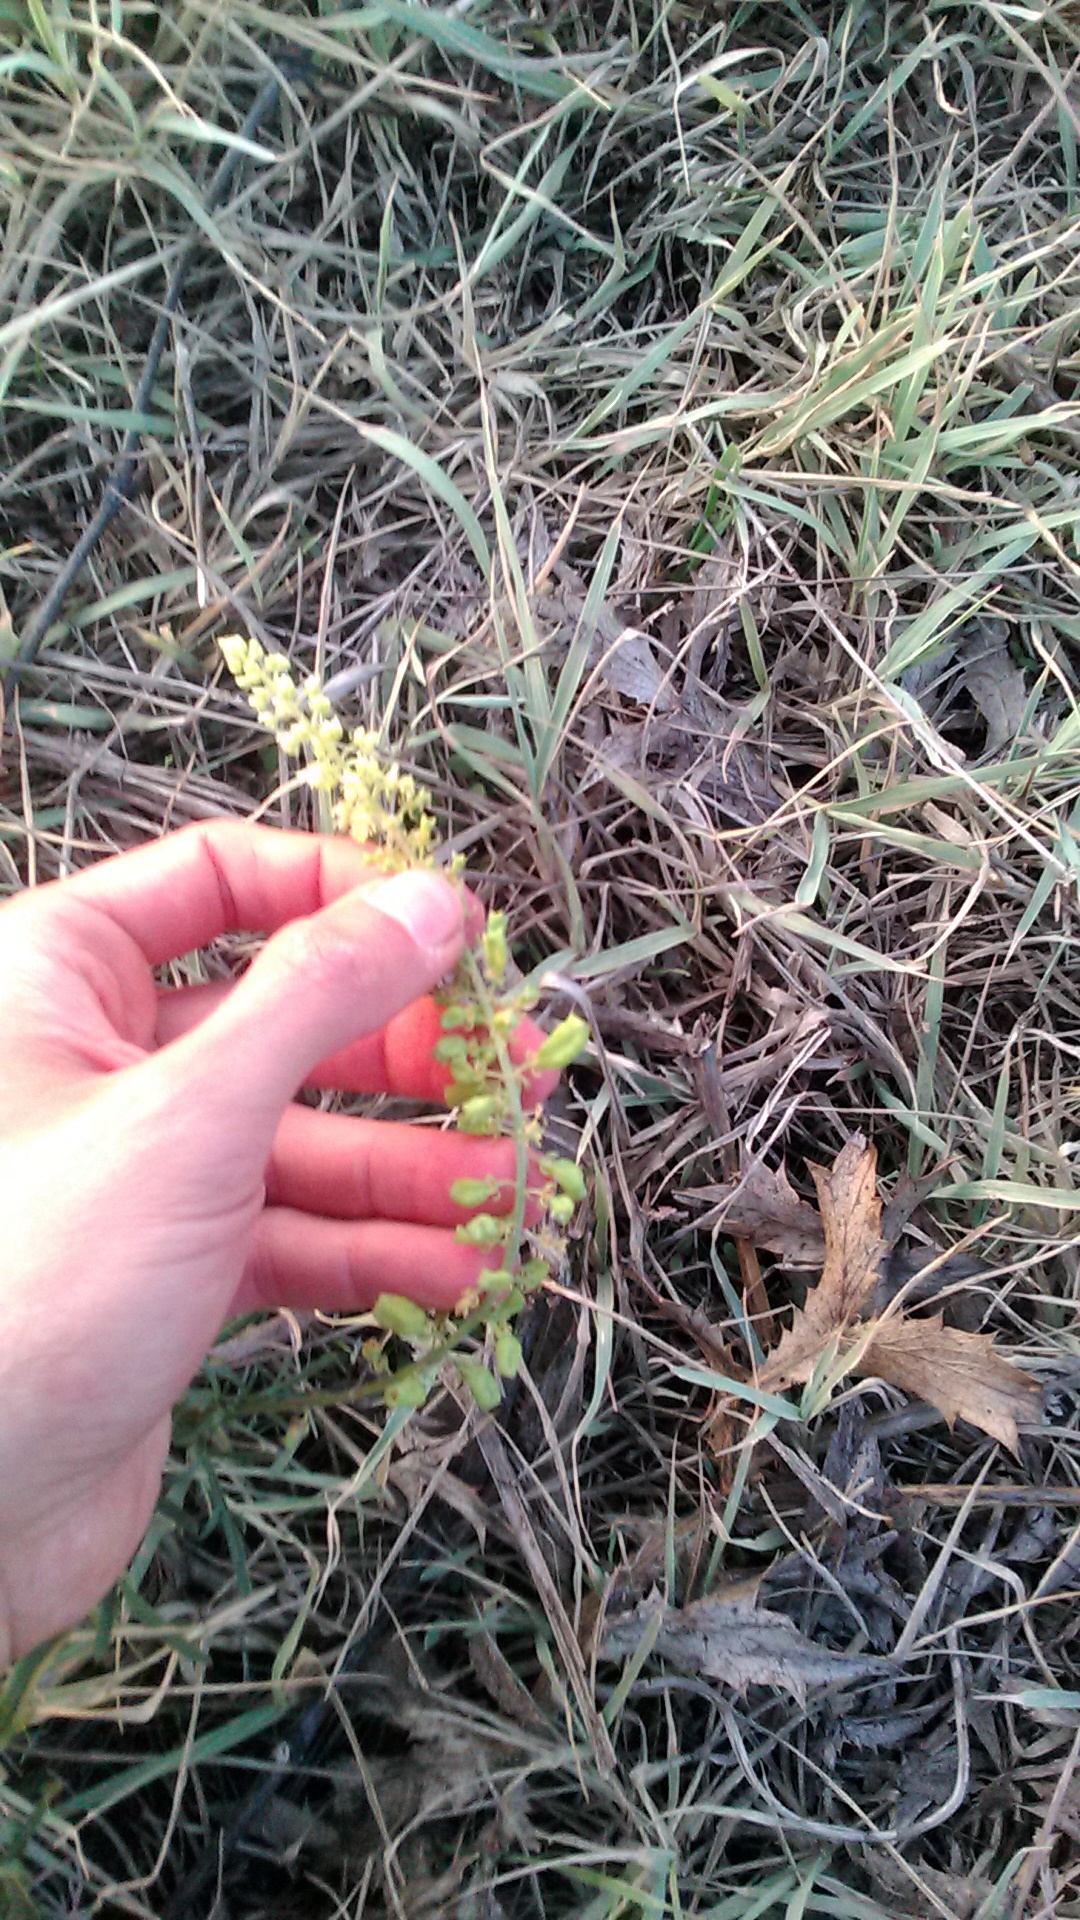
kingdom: Plantae
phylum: Tracheophyta
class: Magnoliopsida
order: Brassicales
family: Resedaceae
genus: Reseda
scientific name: Reseda lutea
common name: Wild mignonette
